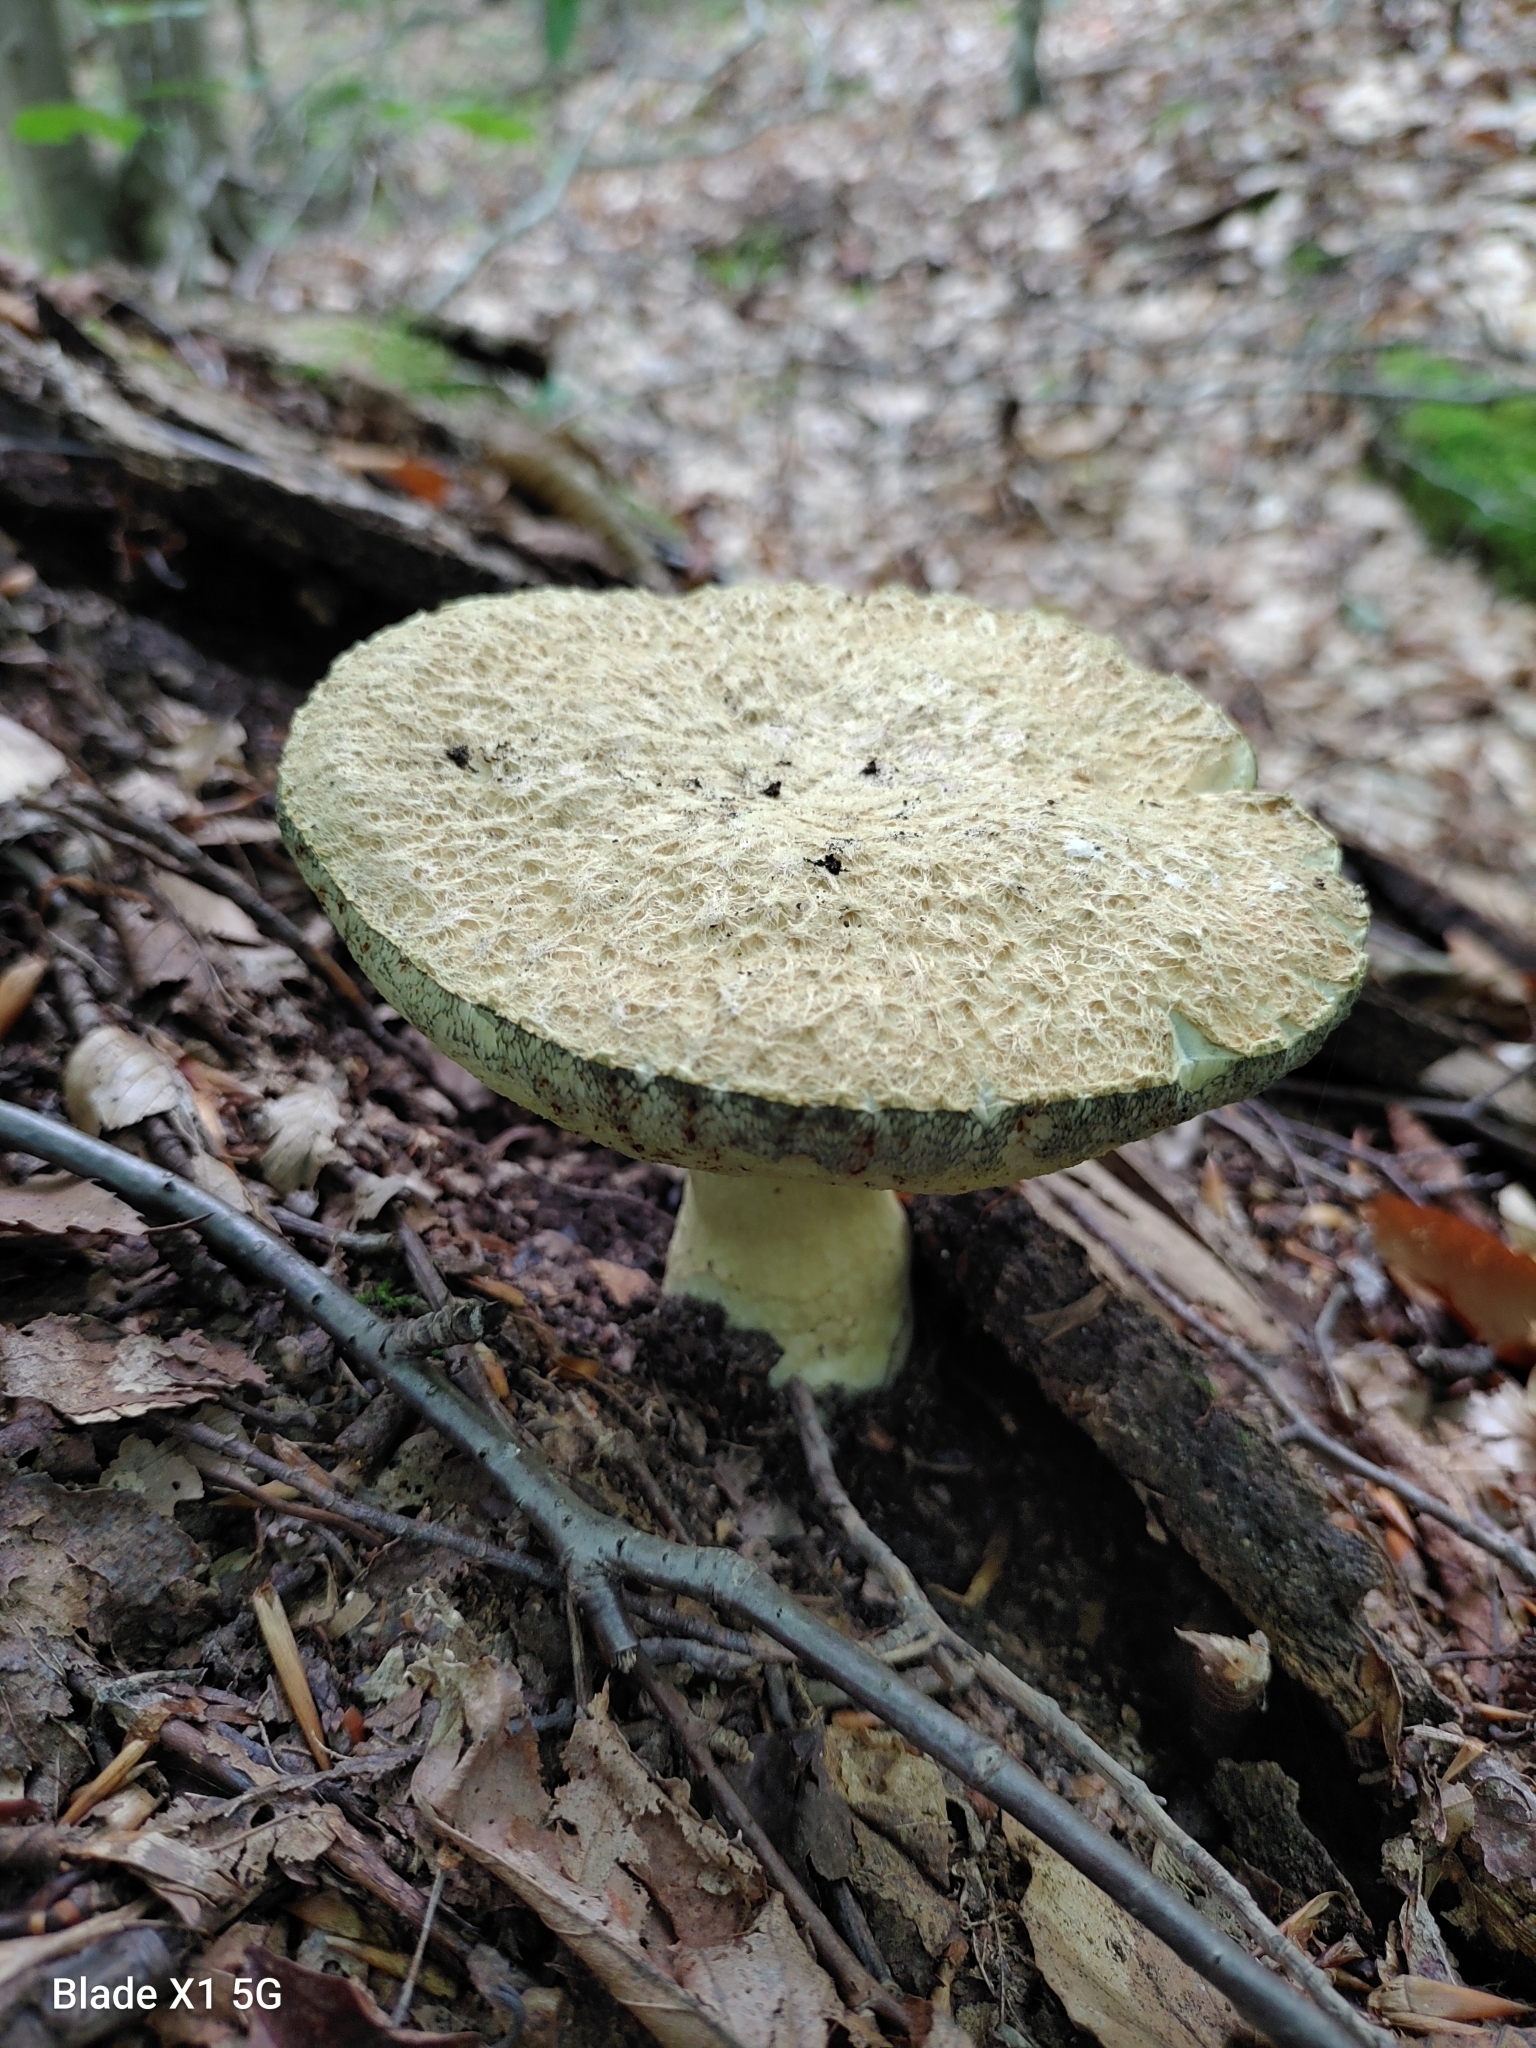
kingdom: Fungi
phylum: Basidiomycota
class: Agaricomycetes
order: Boletales
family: Gyroporaceae
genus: Gyroporus
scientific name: Gyroporus cyanescens
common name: Cornflower bolete
